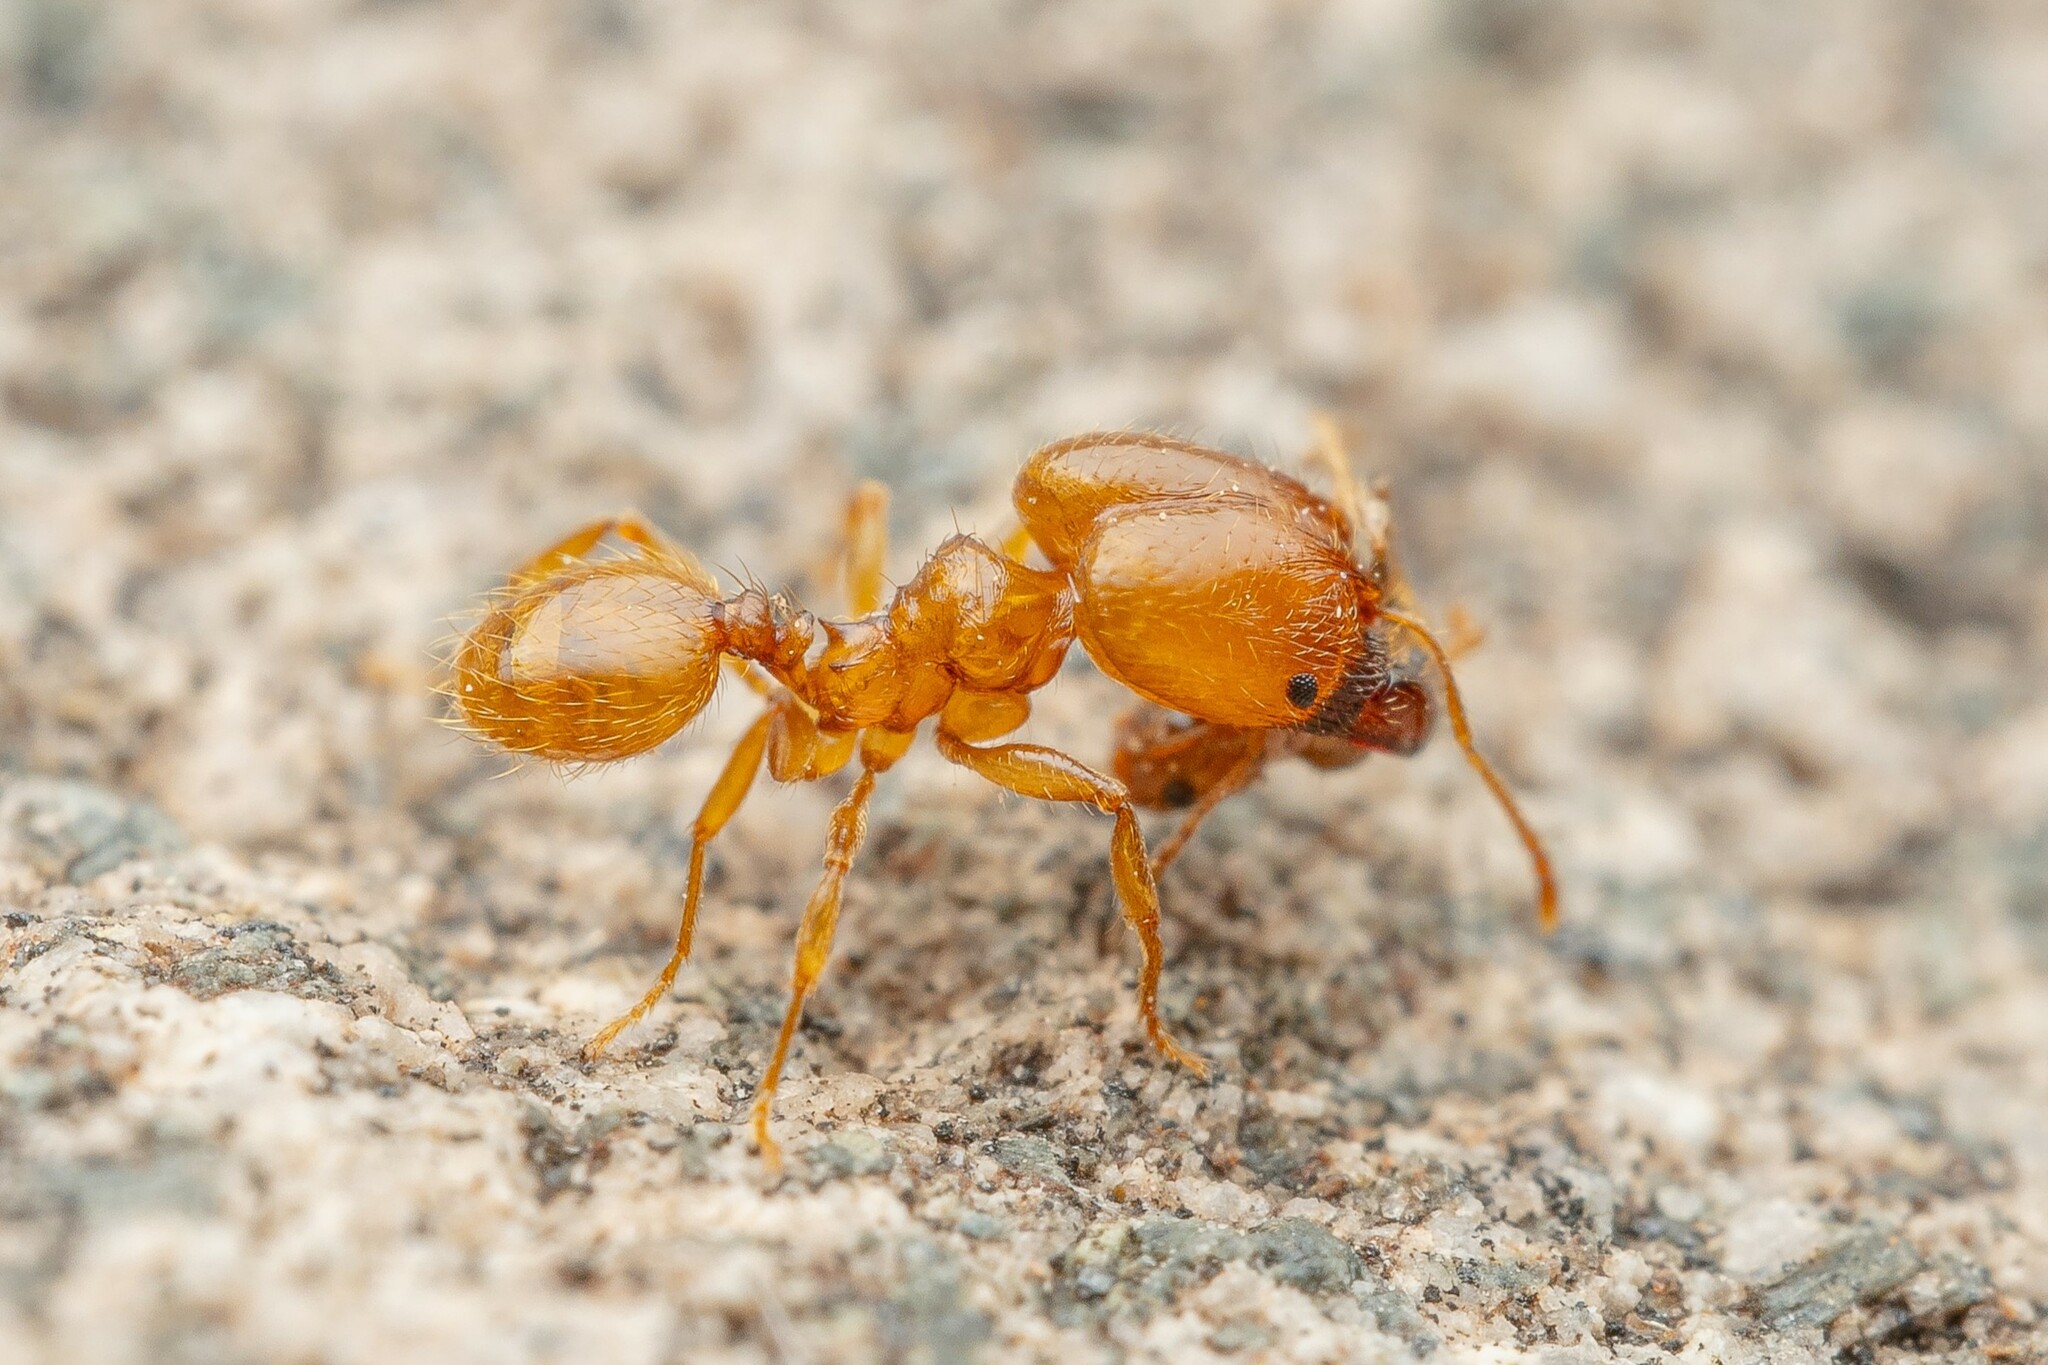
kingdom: Animalia
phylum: Arthropoda
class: Insecta
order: Hymenoptera
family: Formicidae
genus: Pheidole
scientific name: Pheidole cerebrosior
